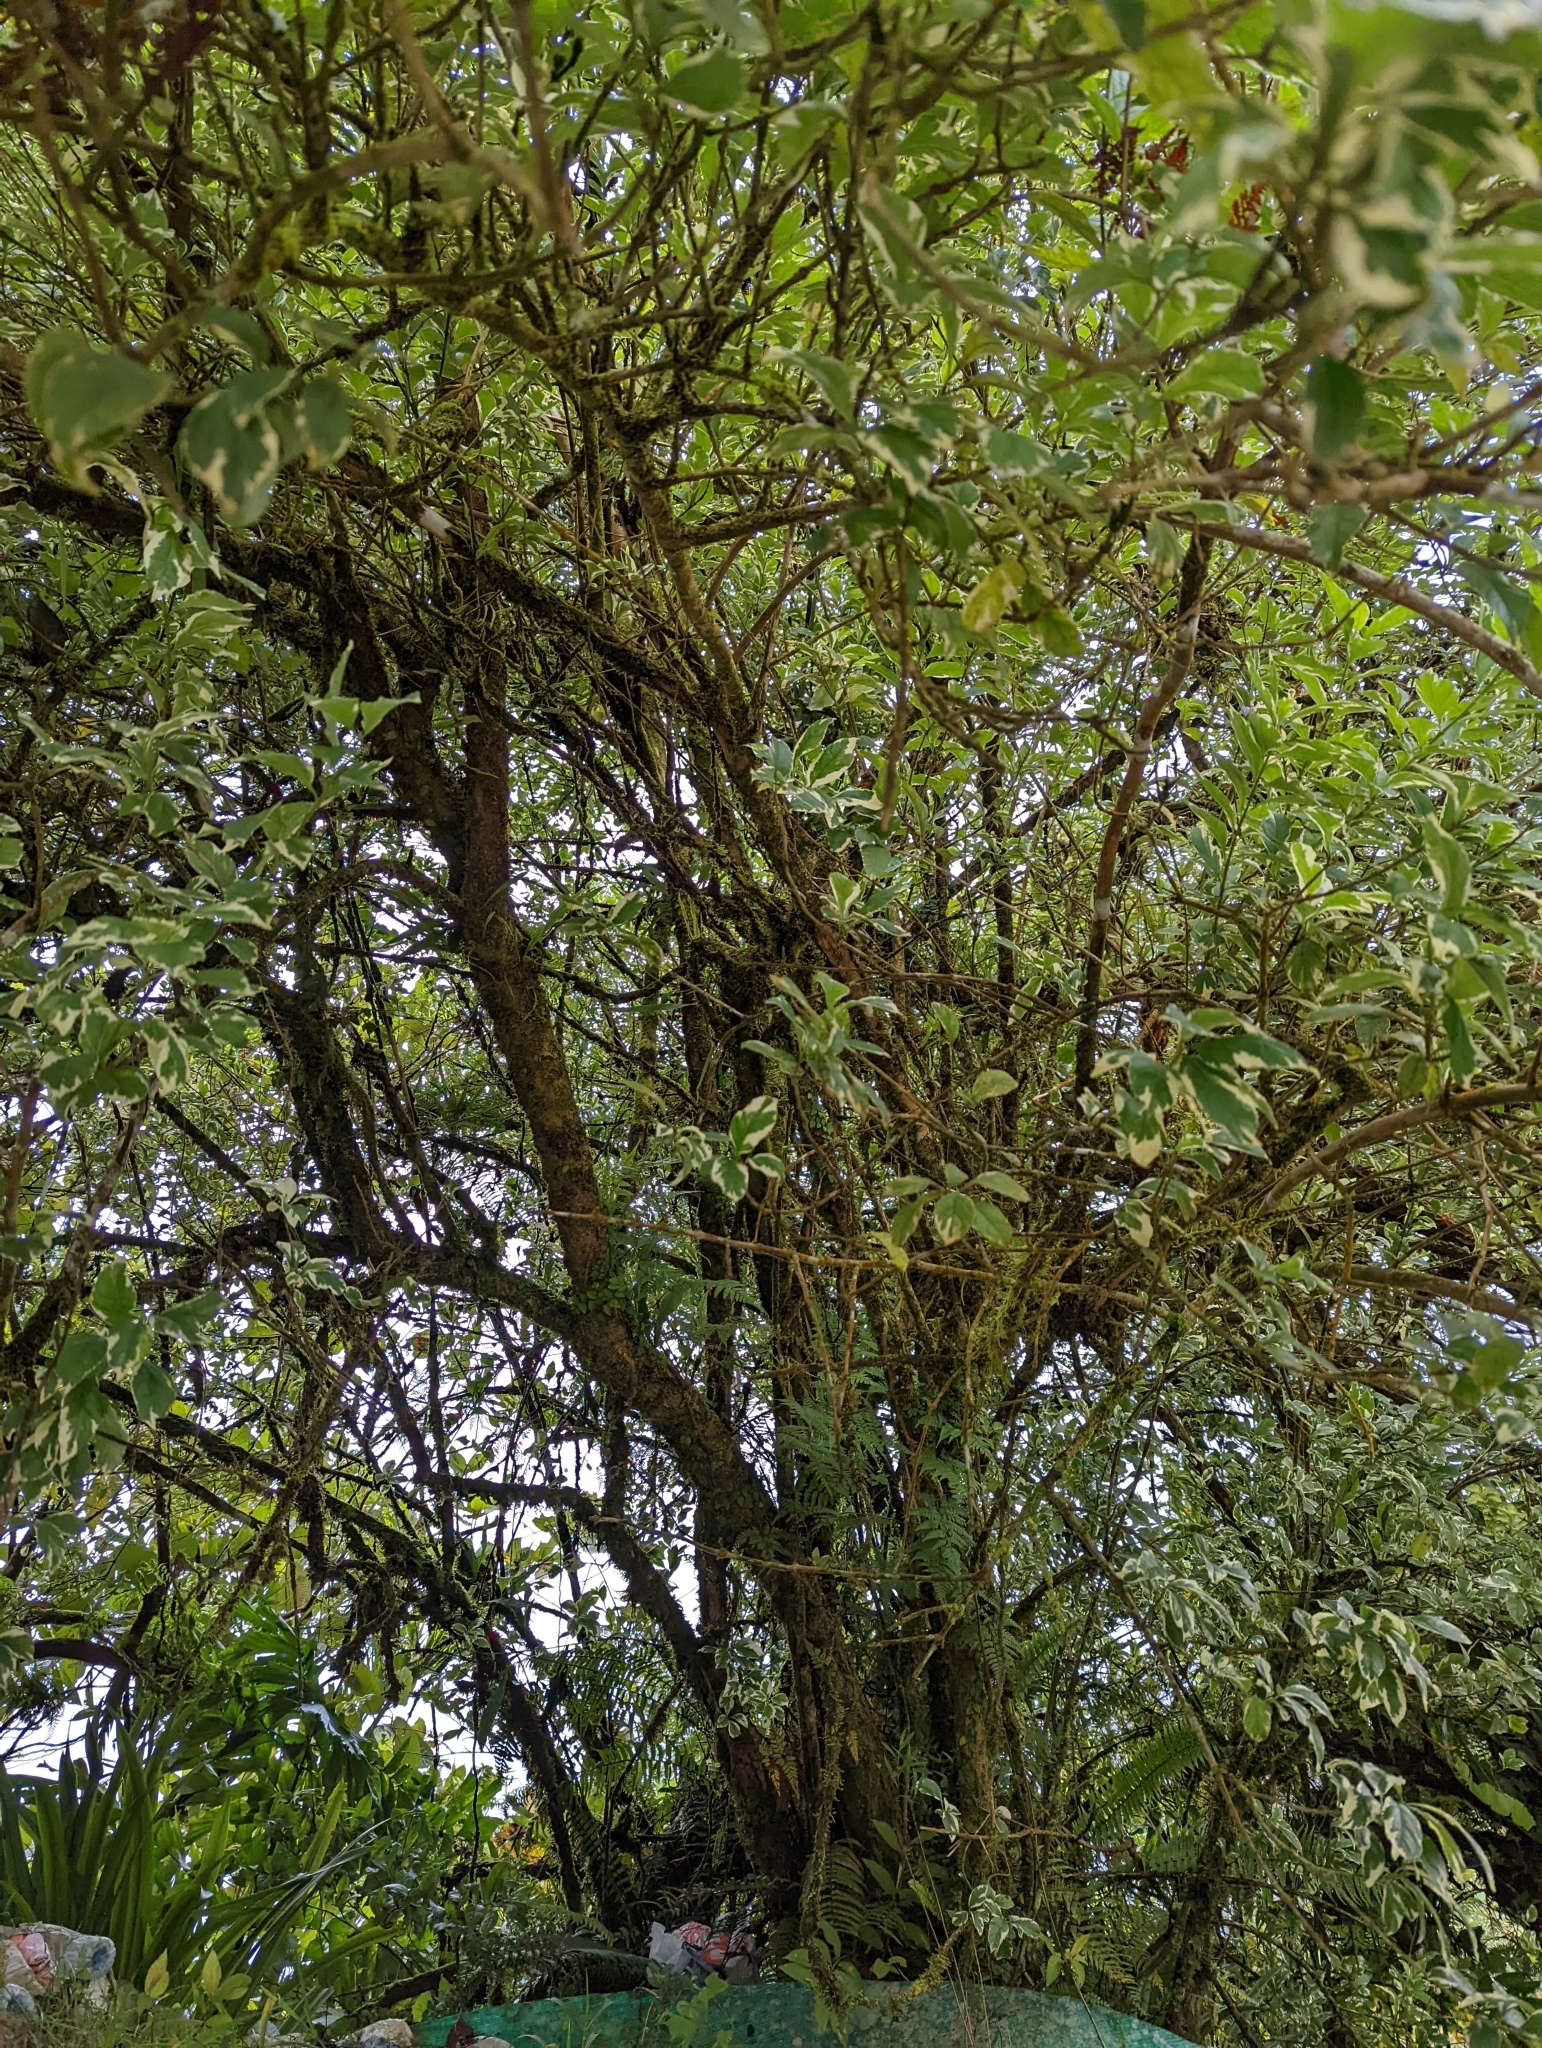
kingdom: Plantae
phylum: Tracheophyta
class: Magnoliopsida
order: Lamiales
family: Verbenaceae
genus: Duranta
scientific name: Duranta erecta
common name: Golden dewdrops
